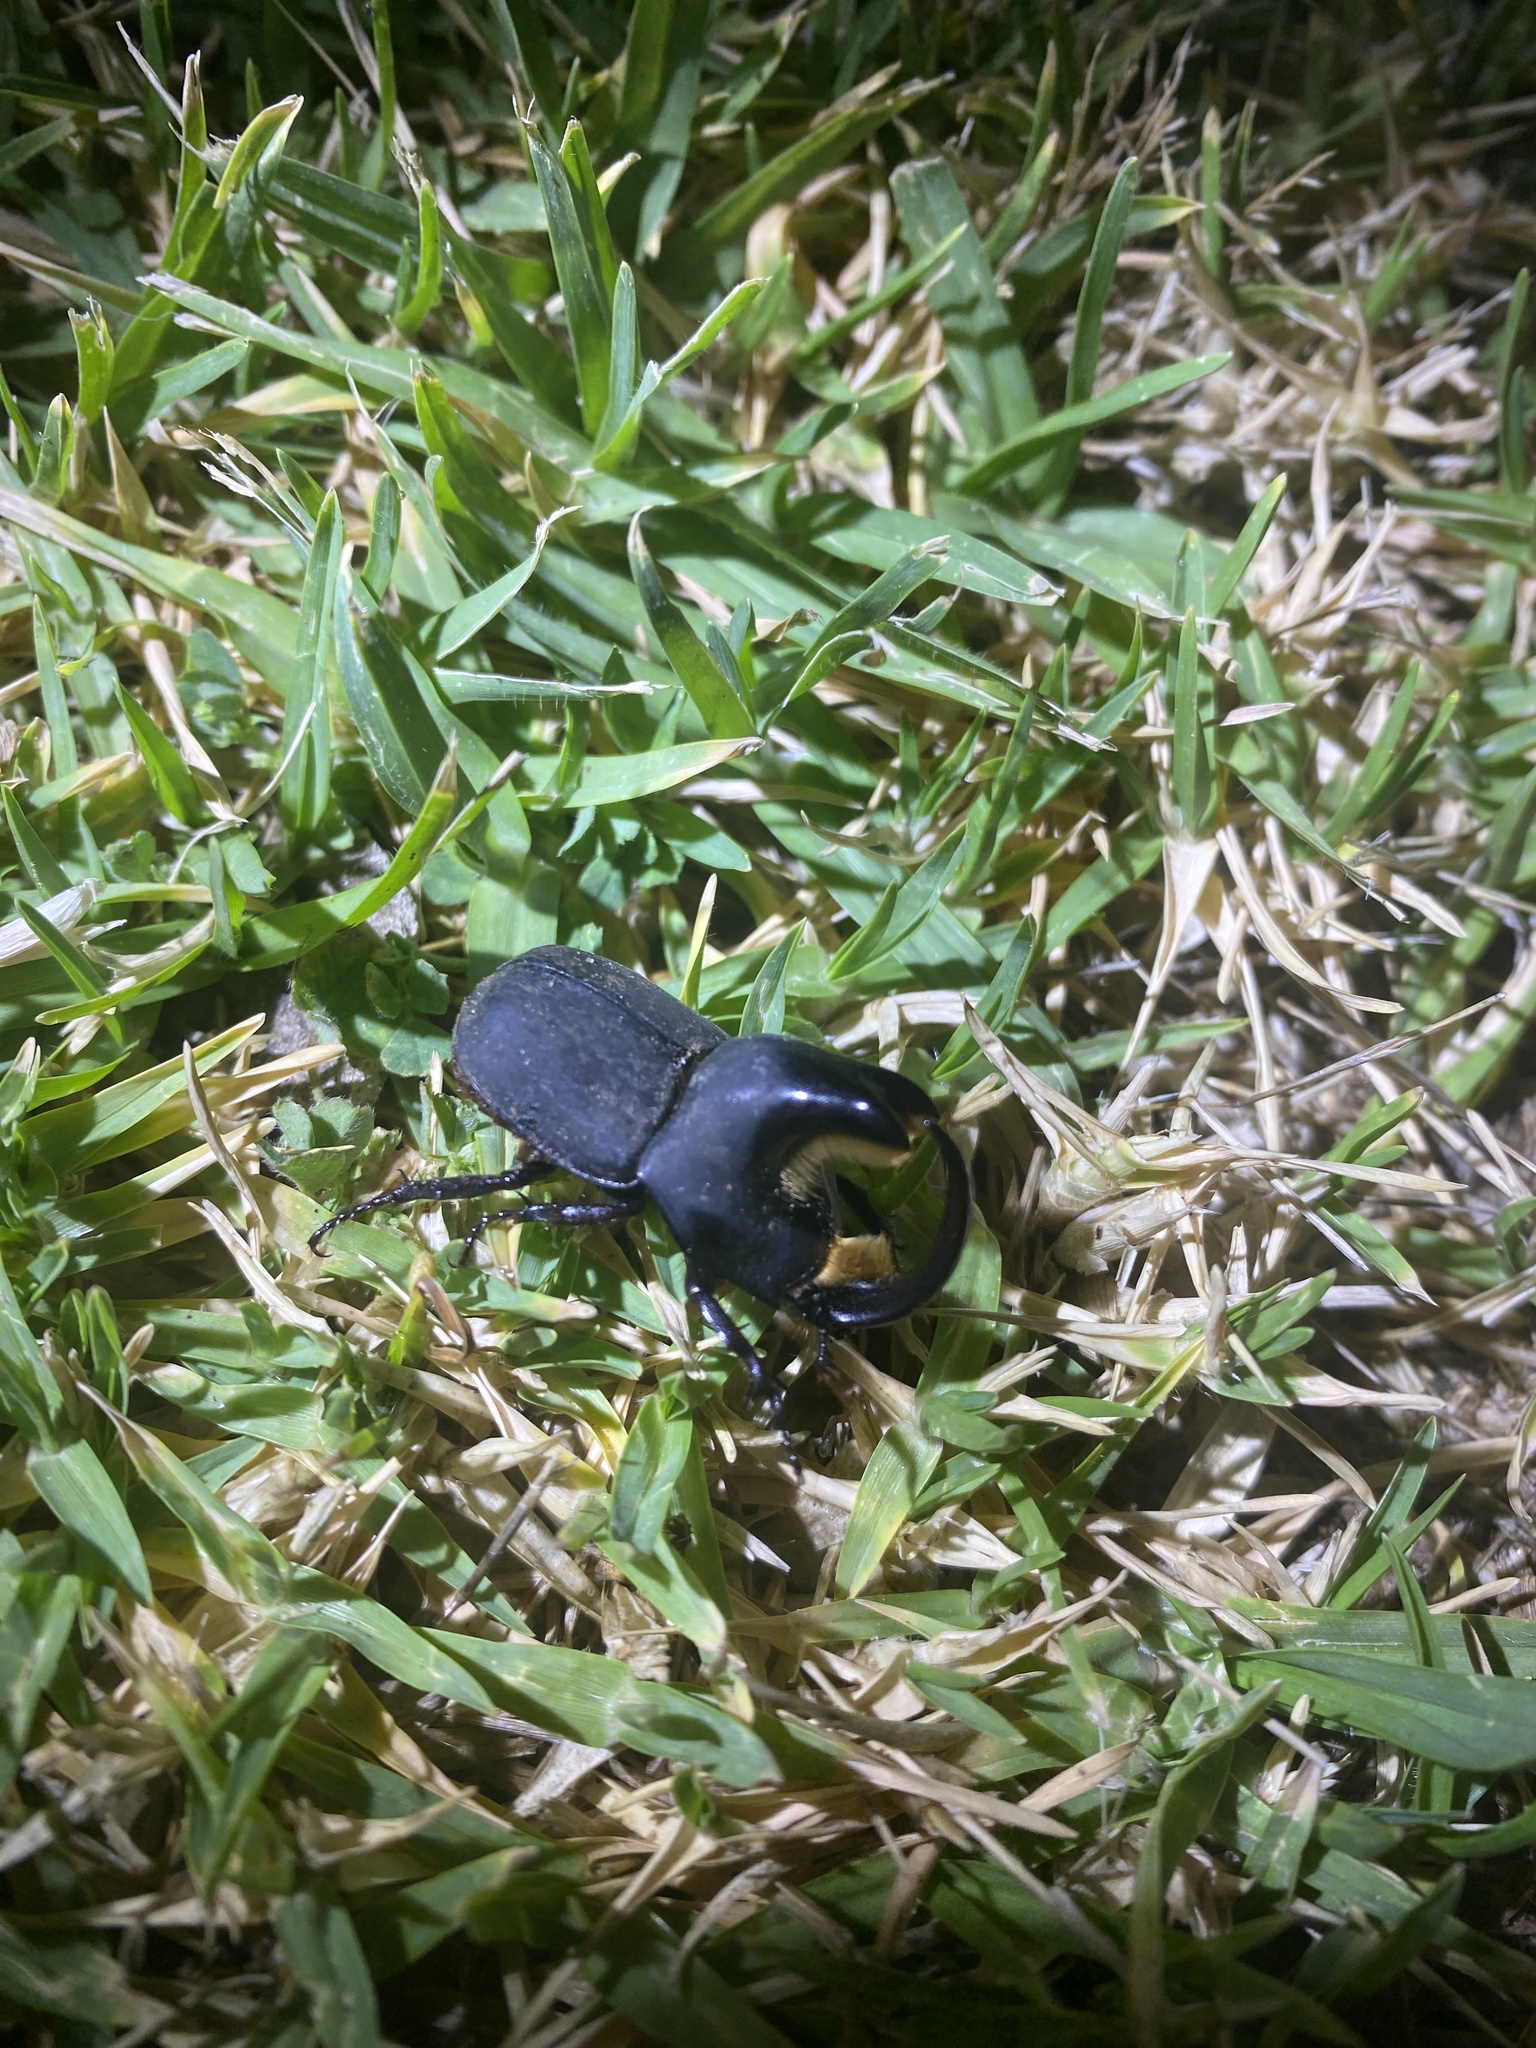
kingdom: Animalia
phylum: Arthropoda
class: Insecta
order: Coleoptera
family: Scarabaeidae
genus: Diloboderus
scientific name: Diloboderus abderus
